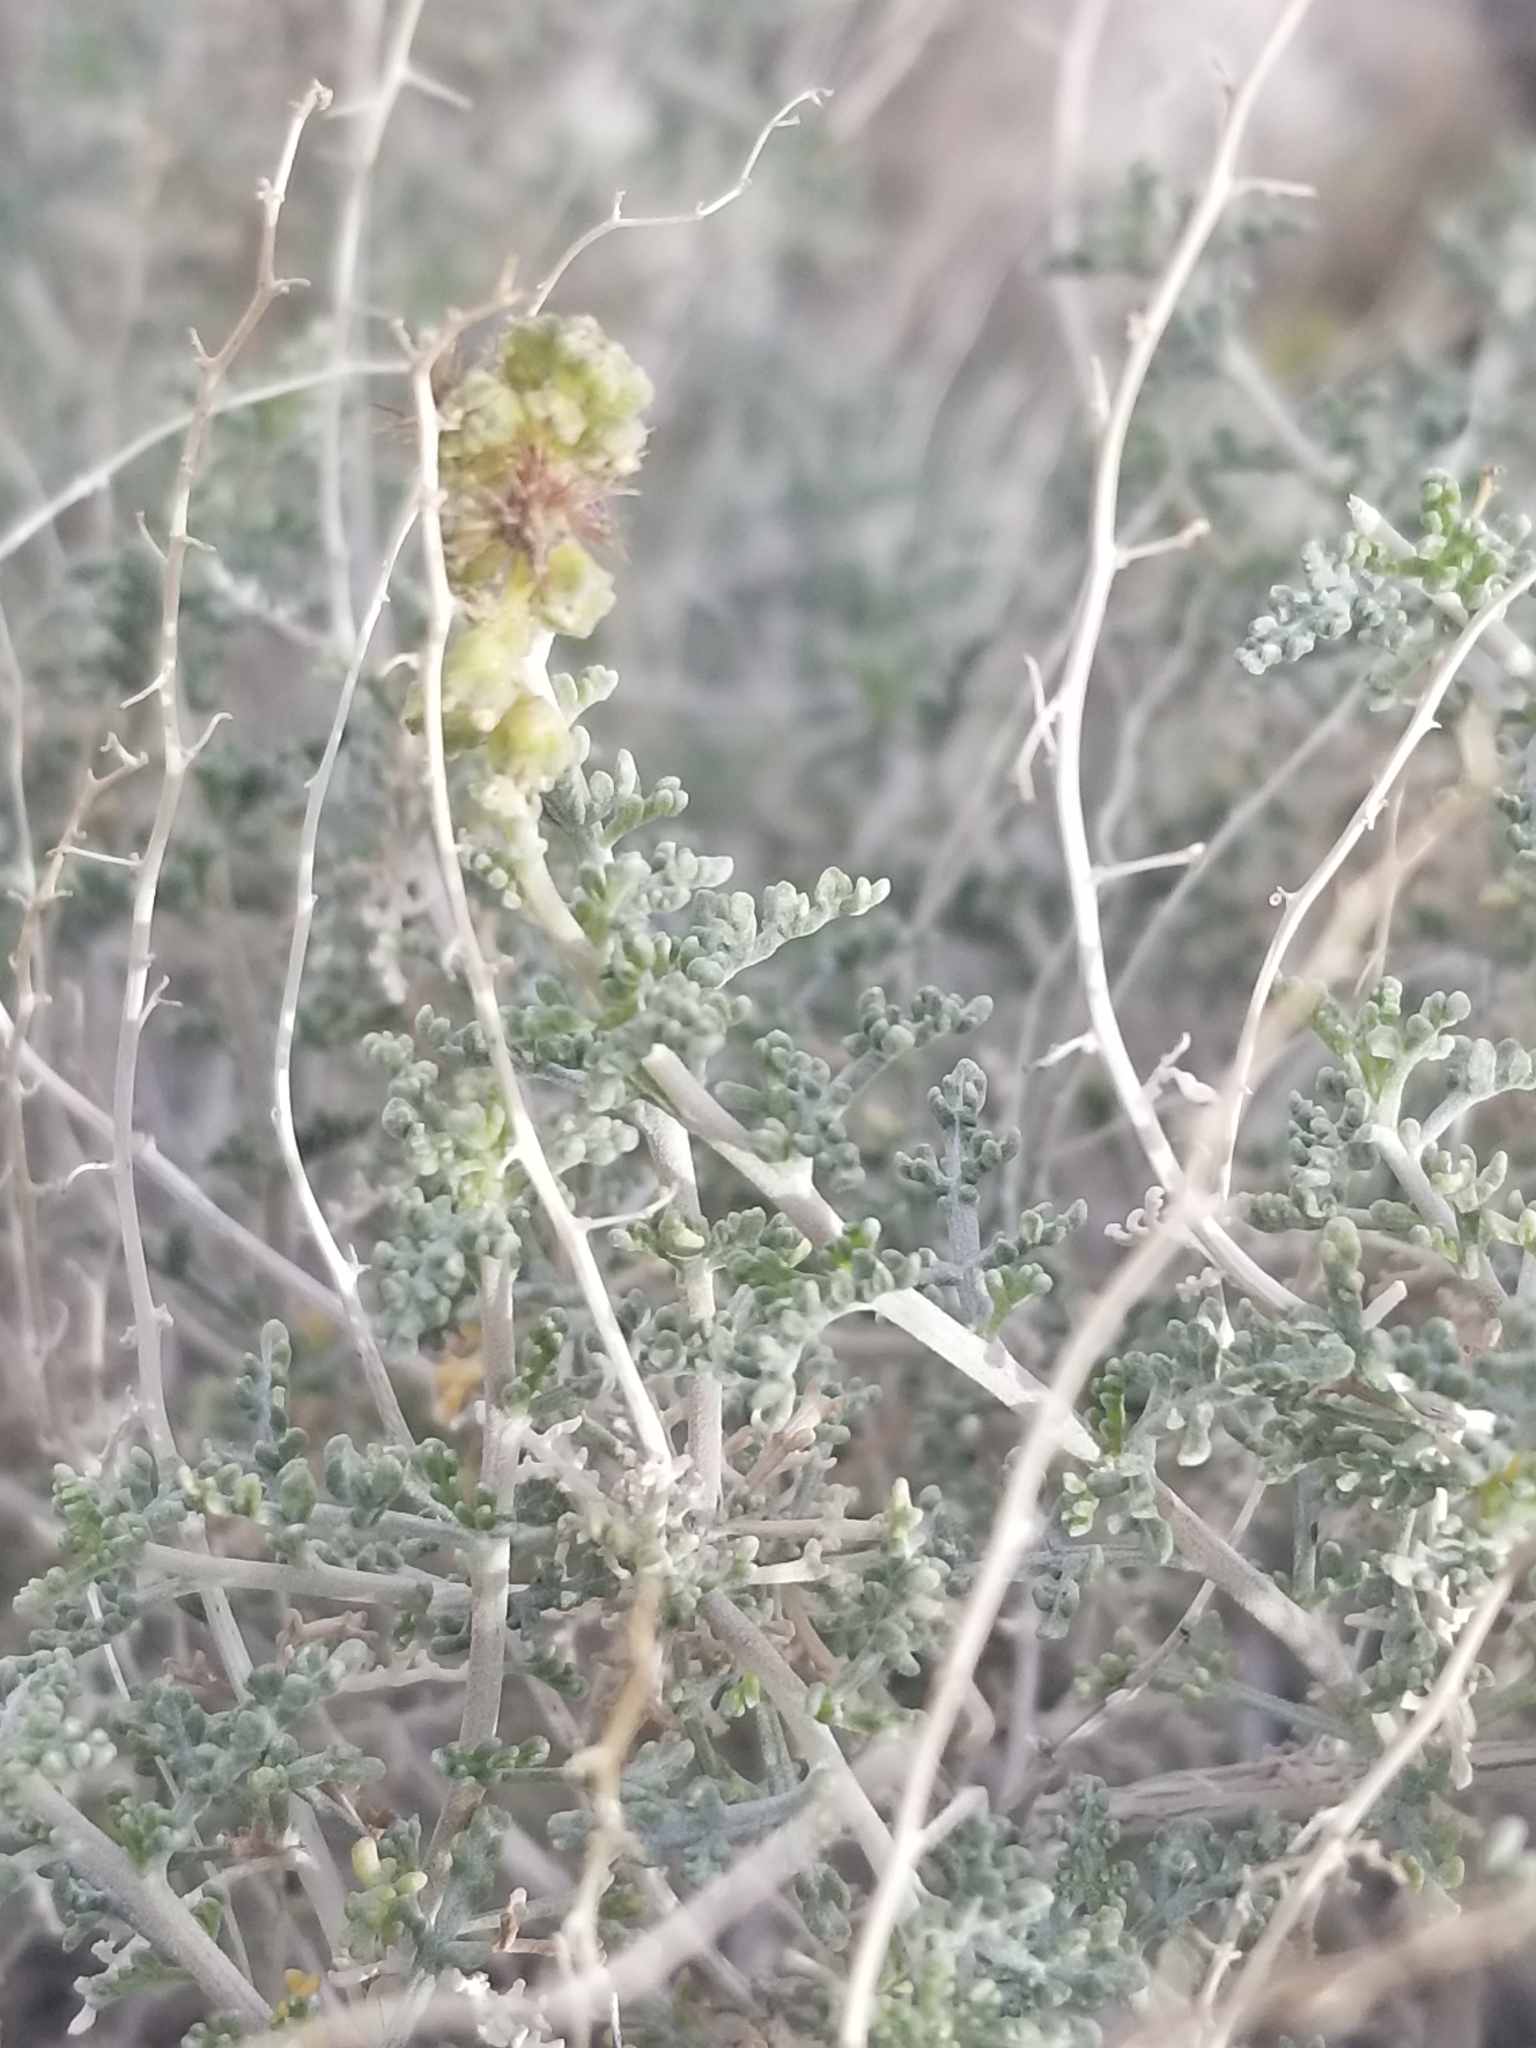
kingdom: Plantae
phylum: Tracheophyta
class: Magnoliopsida
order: Asterales
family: Asteraceae
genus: Ambrosia
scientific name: Ambrosia dumosa
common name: Bur-sage
